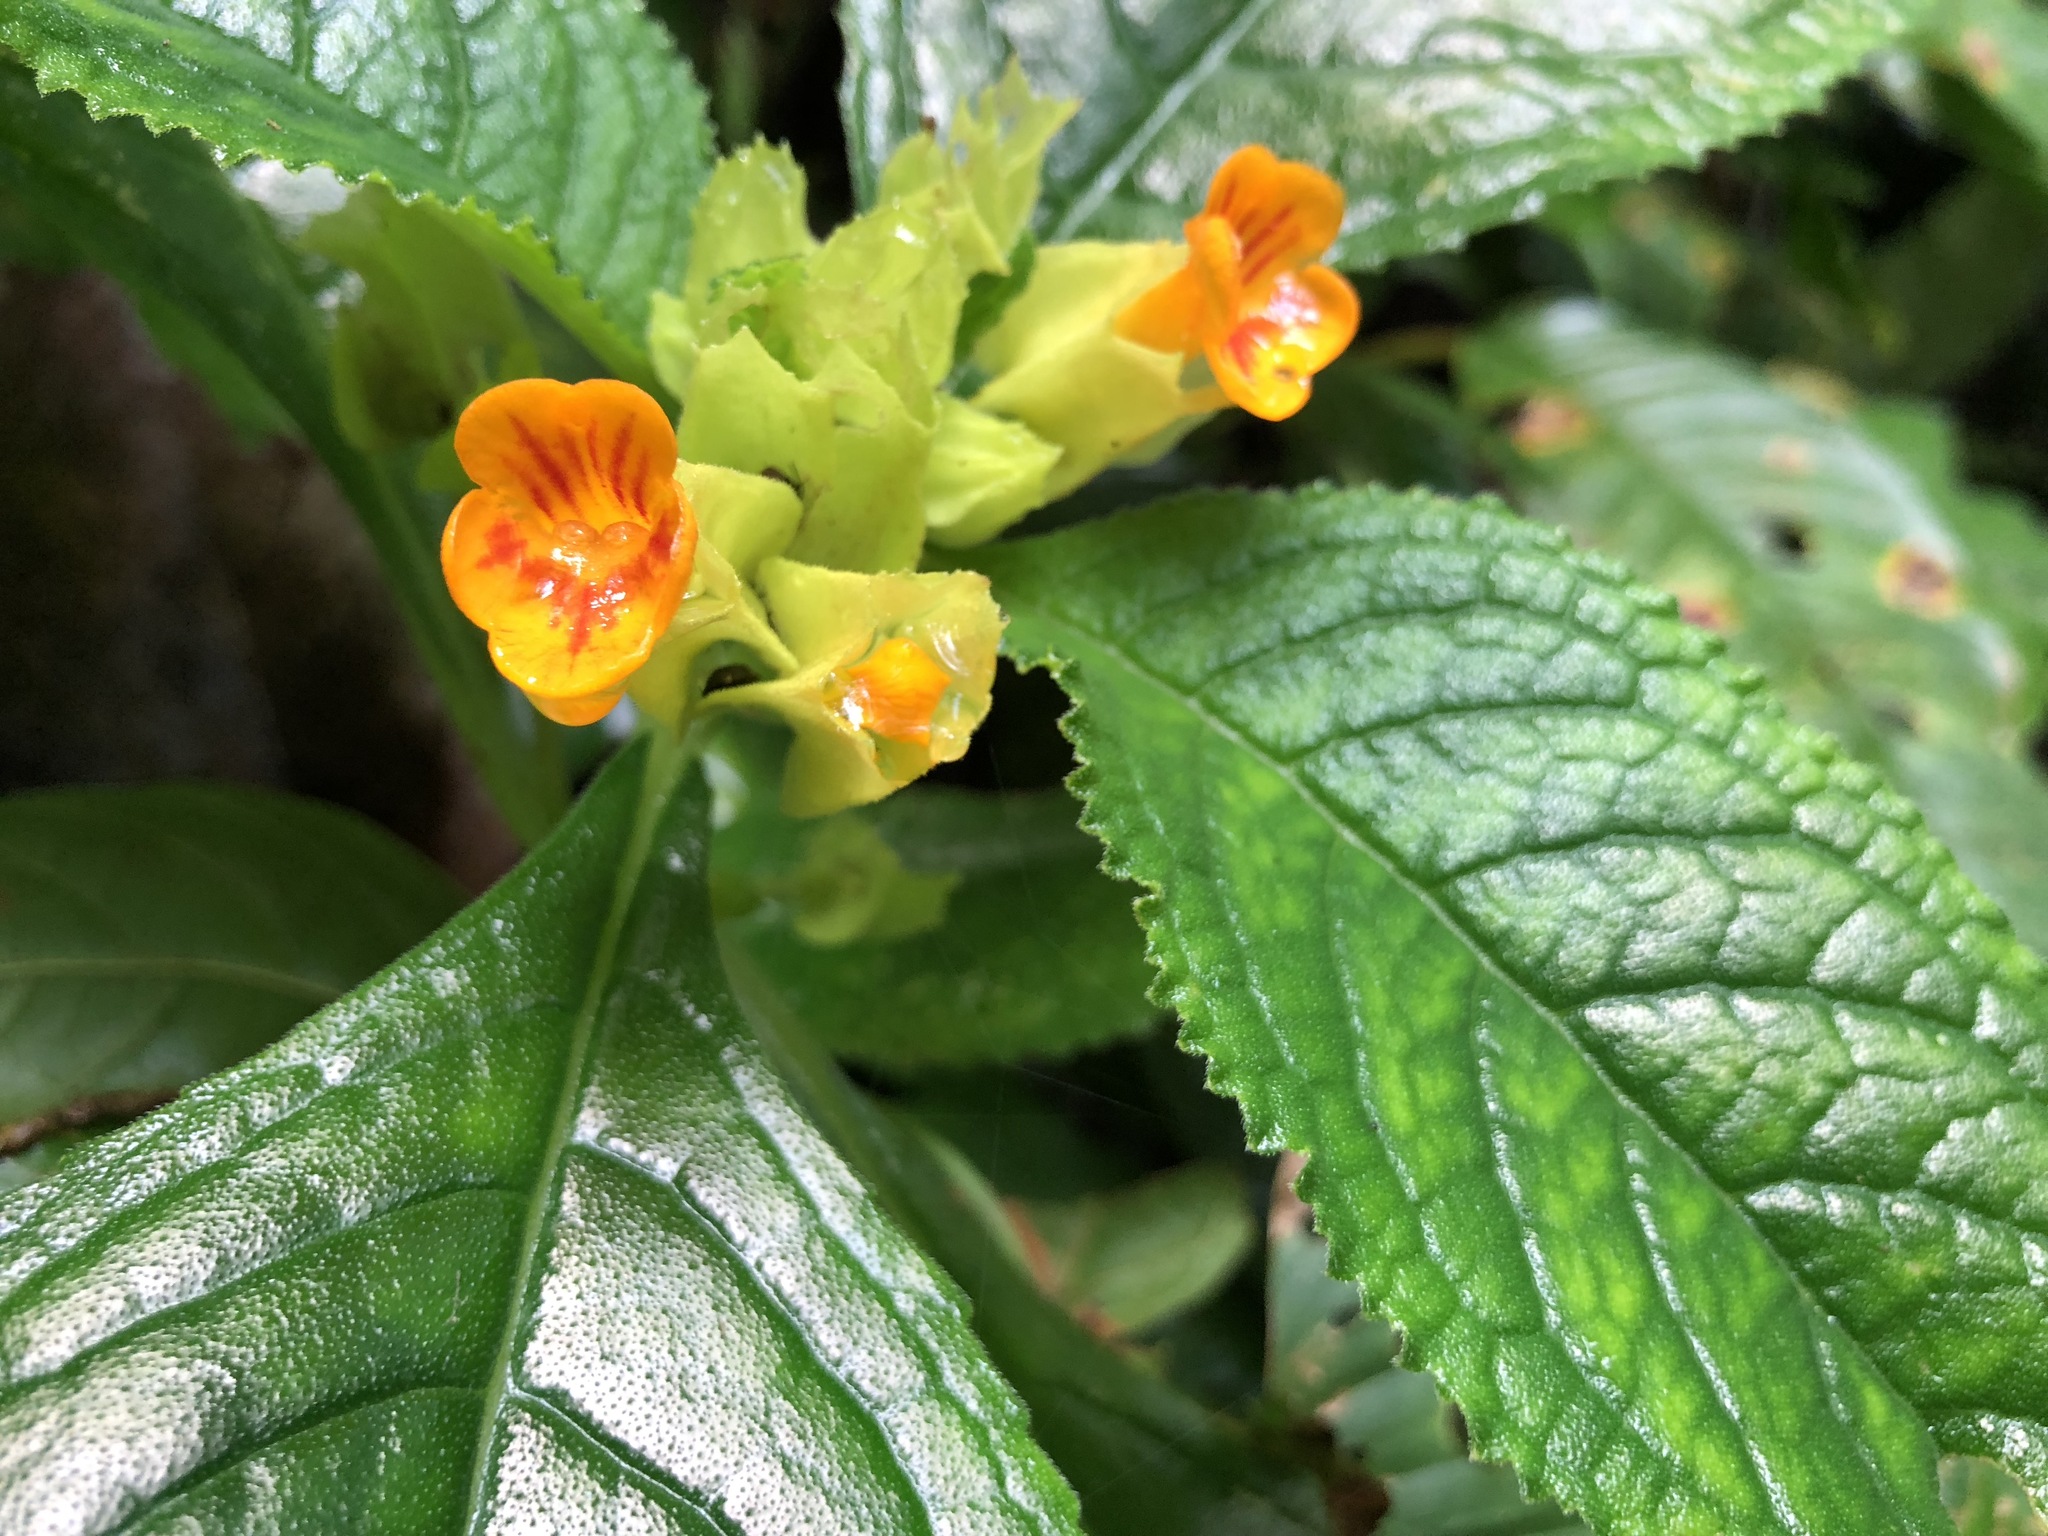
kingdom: Plantae
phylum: Tracheophyta
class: Magnoliopsida
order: Lamiales
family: Gesneriaceae
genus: Chrysothemis
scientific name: Chrysothemis friedrichsthaliana
